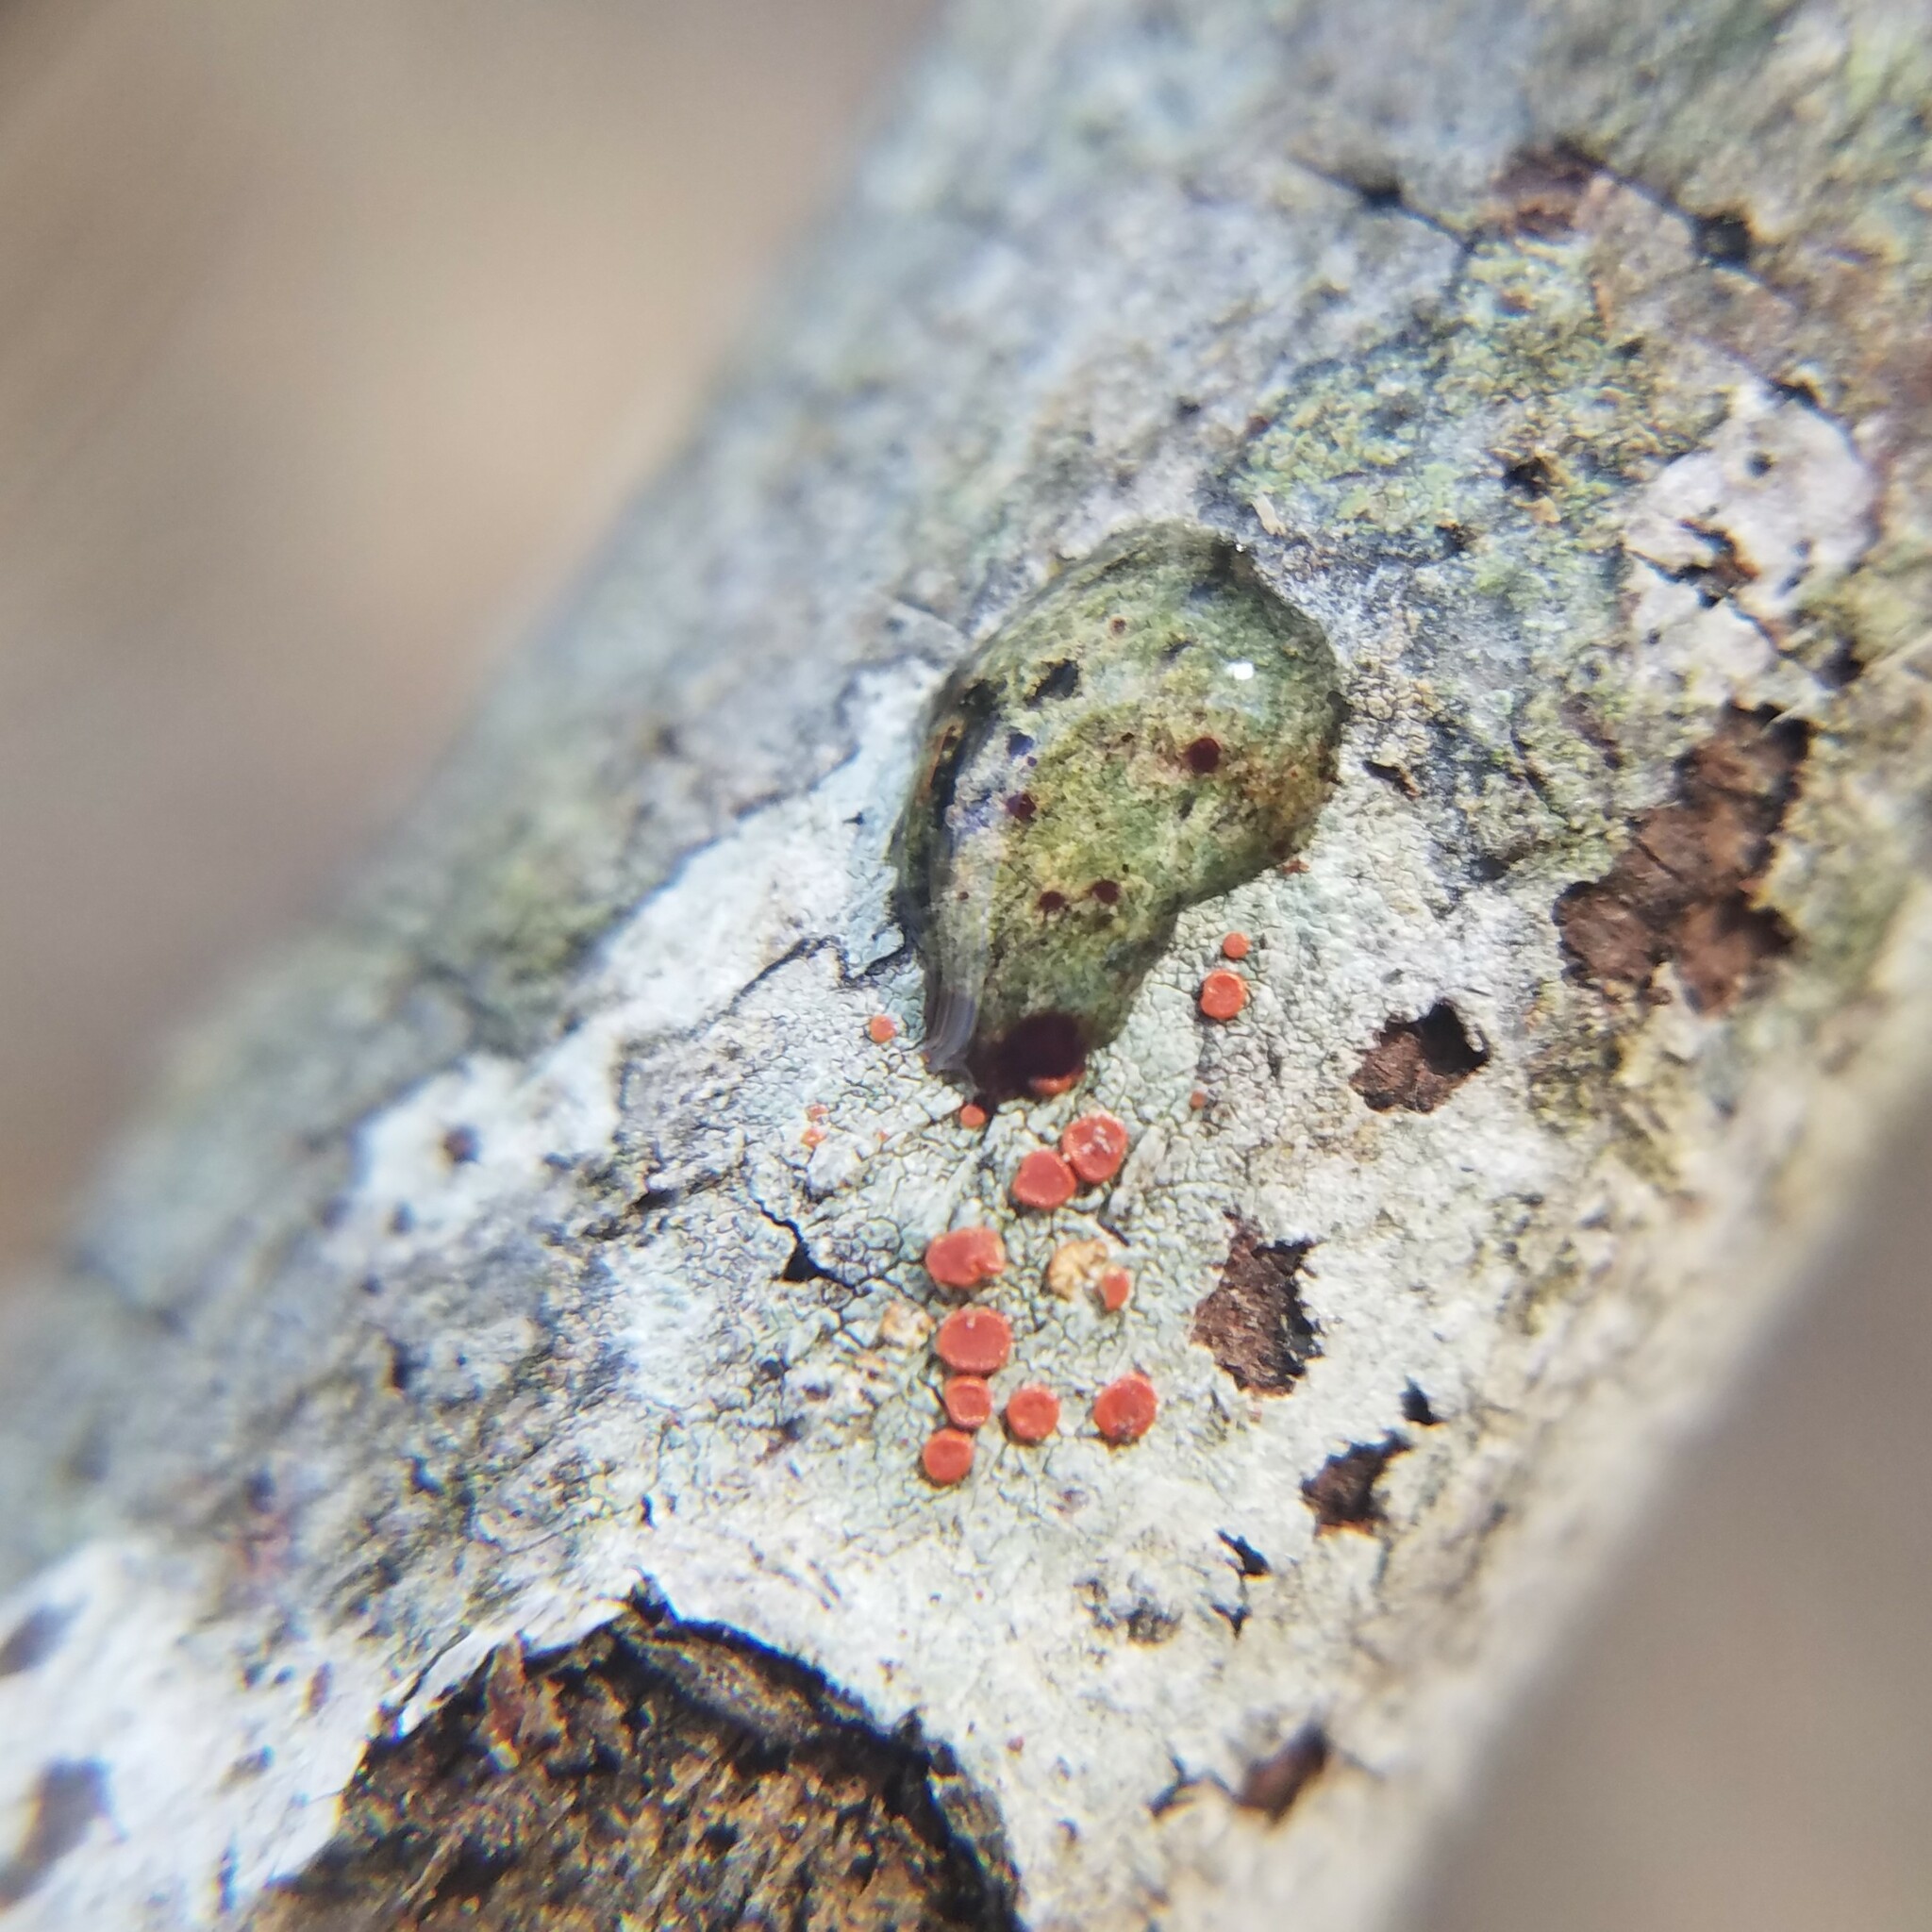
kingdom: Fungi
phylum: Ascomycota
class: Lecanoromycetes
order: Lecanorales
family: Ramboldiaceae
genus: Ramboldia
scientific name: Ramboldia russula
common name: Red heads
